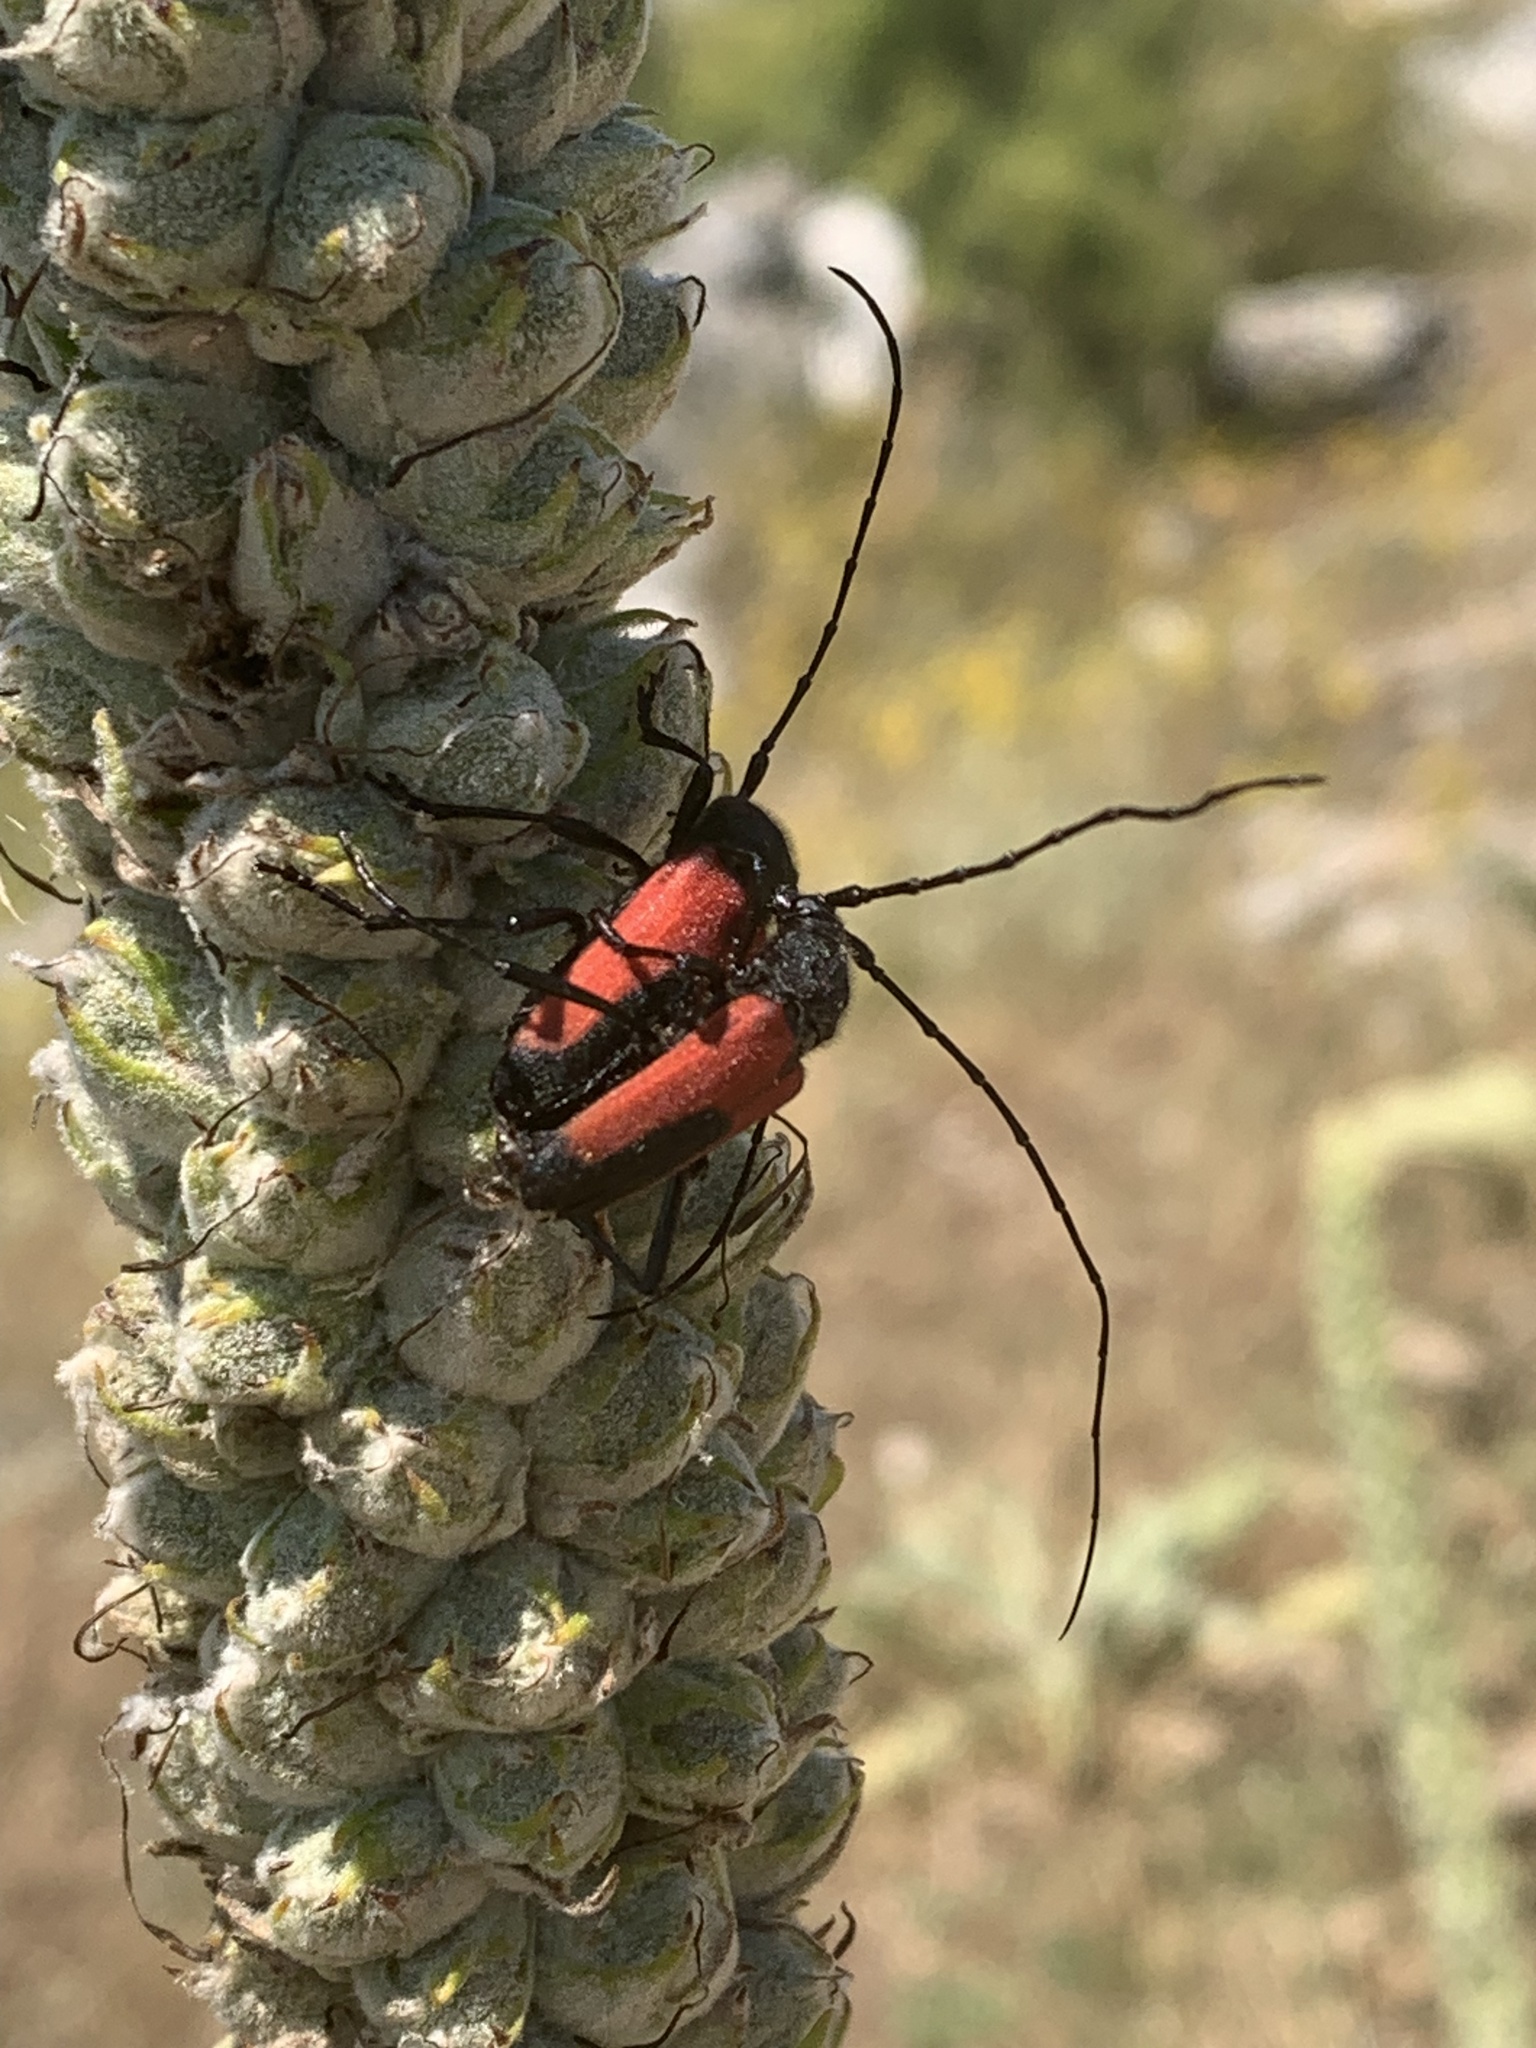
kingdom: Animalia
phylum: Arthropoda
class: Insecta
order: Coleoptera
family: Cerambycidae
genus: Purpuricenus
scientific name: Purpuricenus budensis
